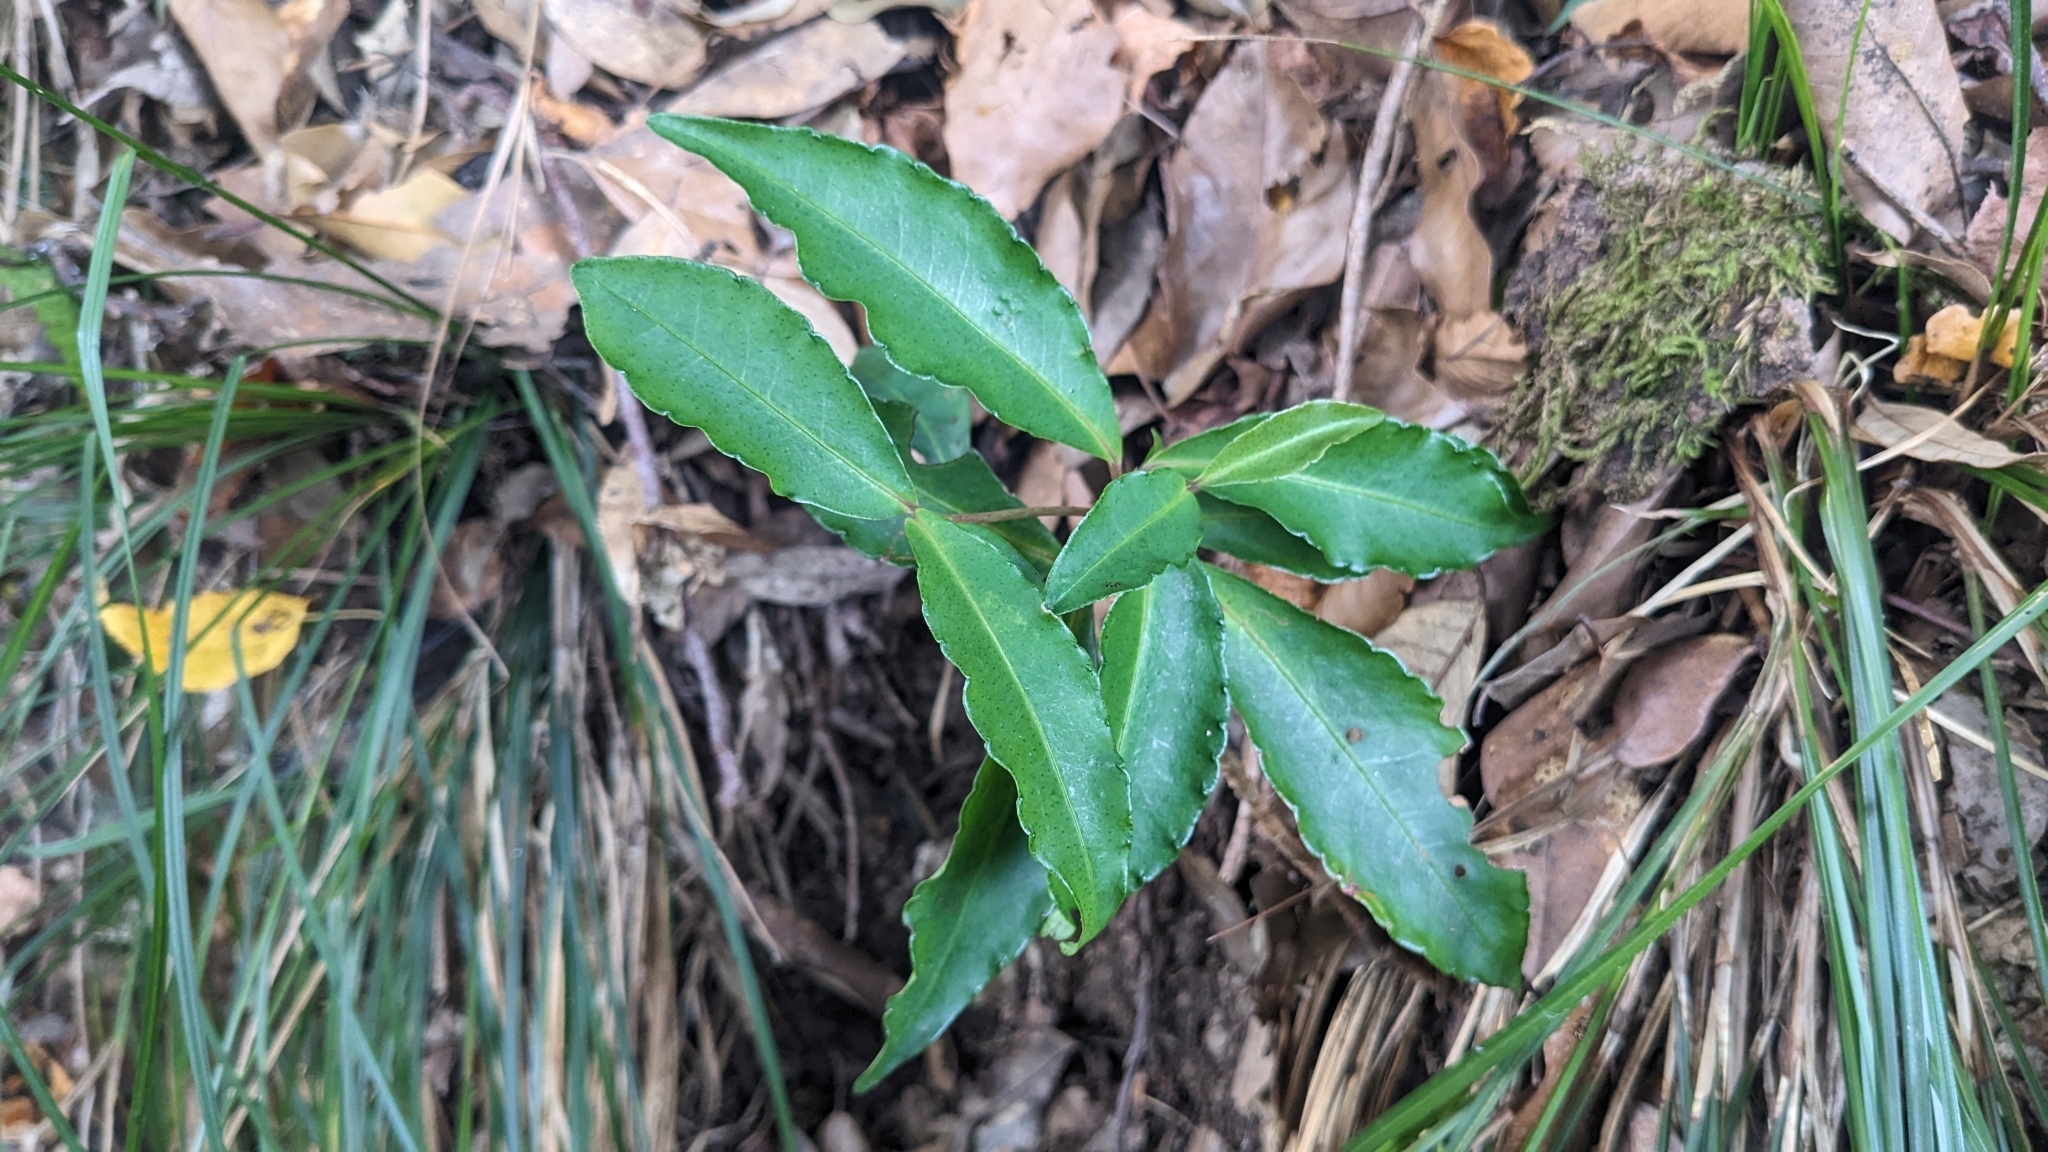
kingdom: Plantae
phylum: Tracheophyta
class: Magnoliopsida
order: Ericales
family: Primulaceae
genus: Ardisia
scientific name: Ardisia crenata
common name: Hen's eyes
